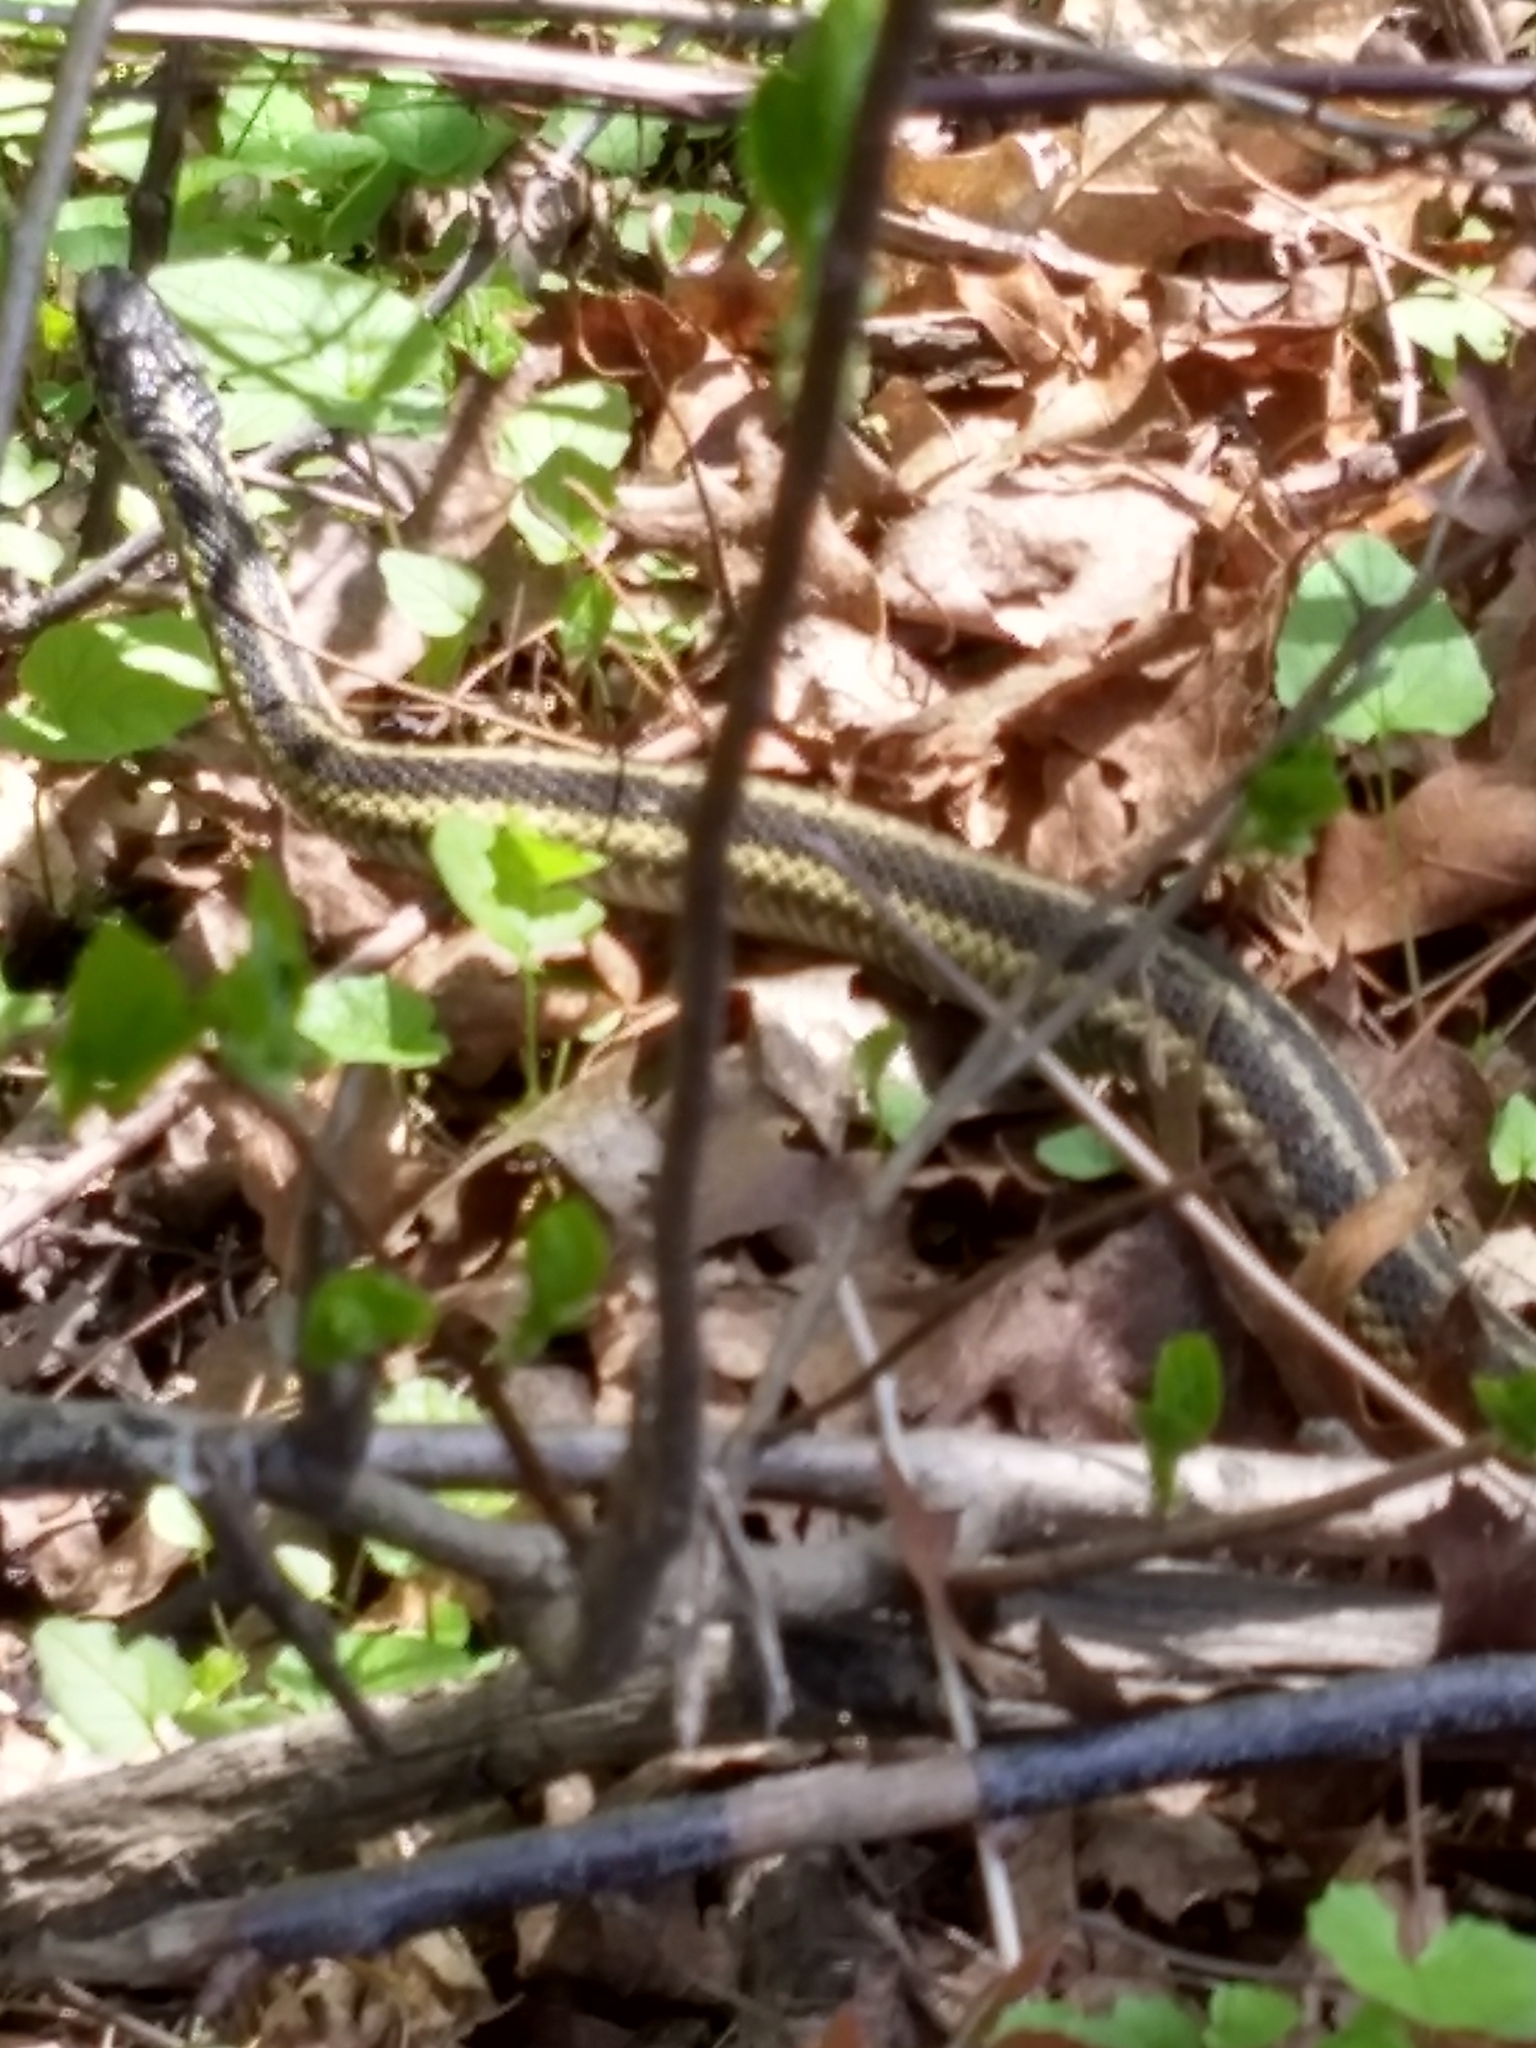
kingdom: Animalia
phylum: Chordata
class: Squamata
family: Colubridae
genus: Thamnophis
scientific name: Thamnophis sirtalis
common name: Common garter snake
